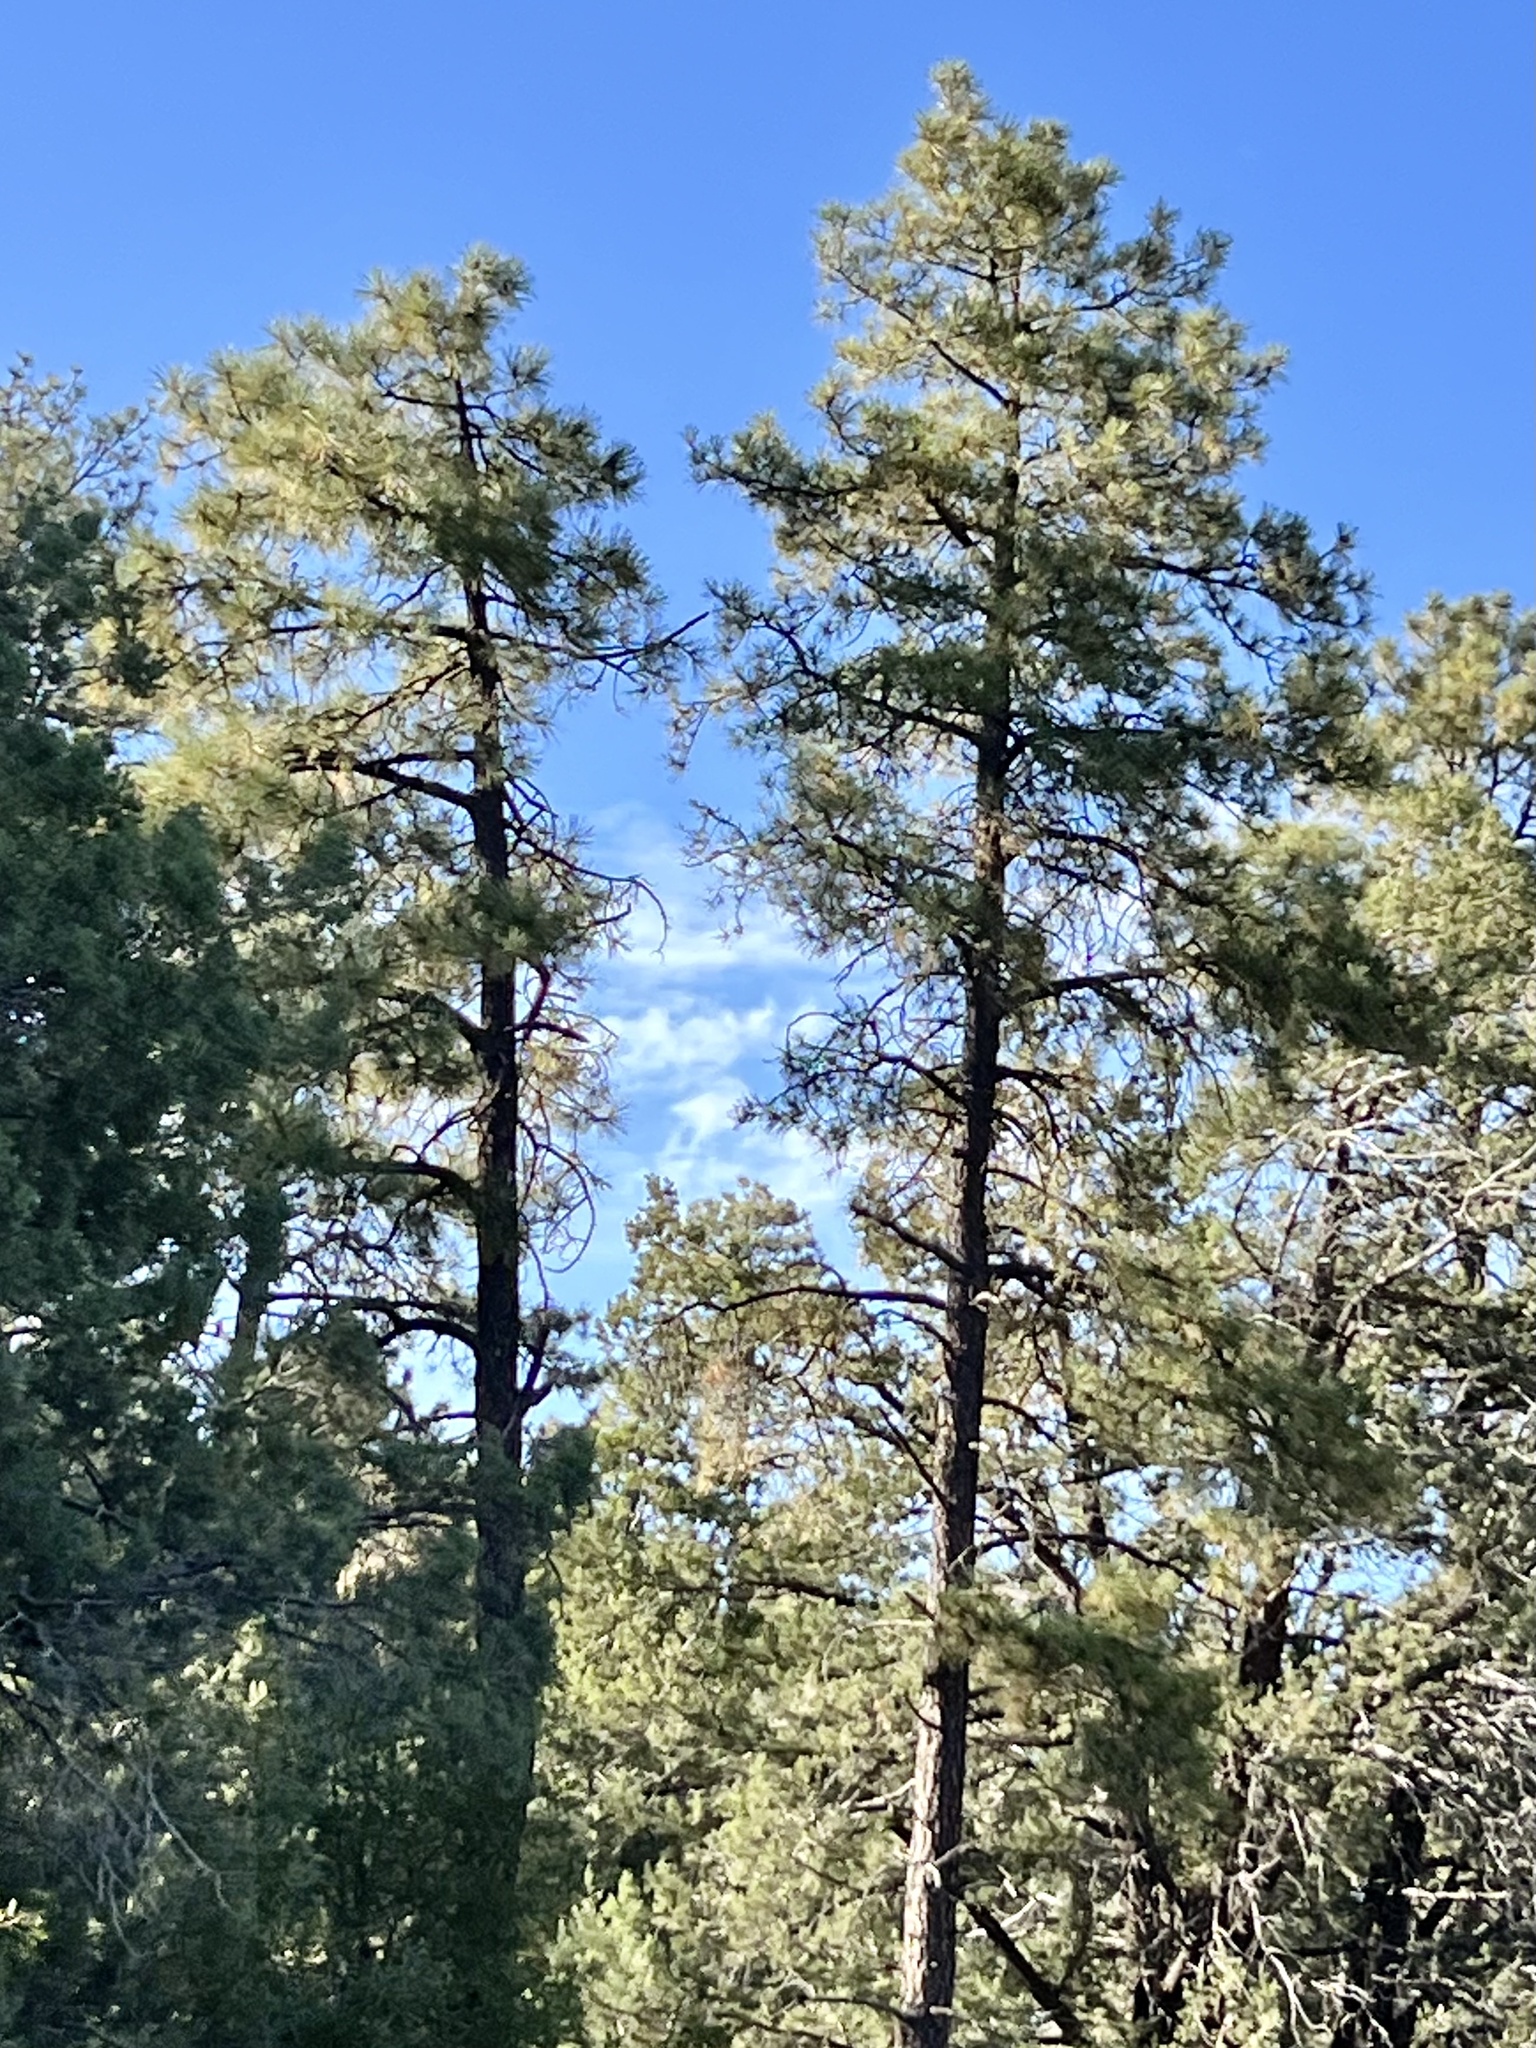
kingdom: Plantae
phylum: Tracheophyta
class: Pinopsida
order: Pinales
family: Pinaceae
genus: Pinus
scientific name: Pinus ponderosa
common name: Western yellow-pine
